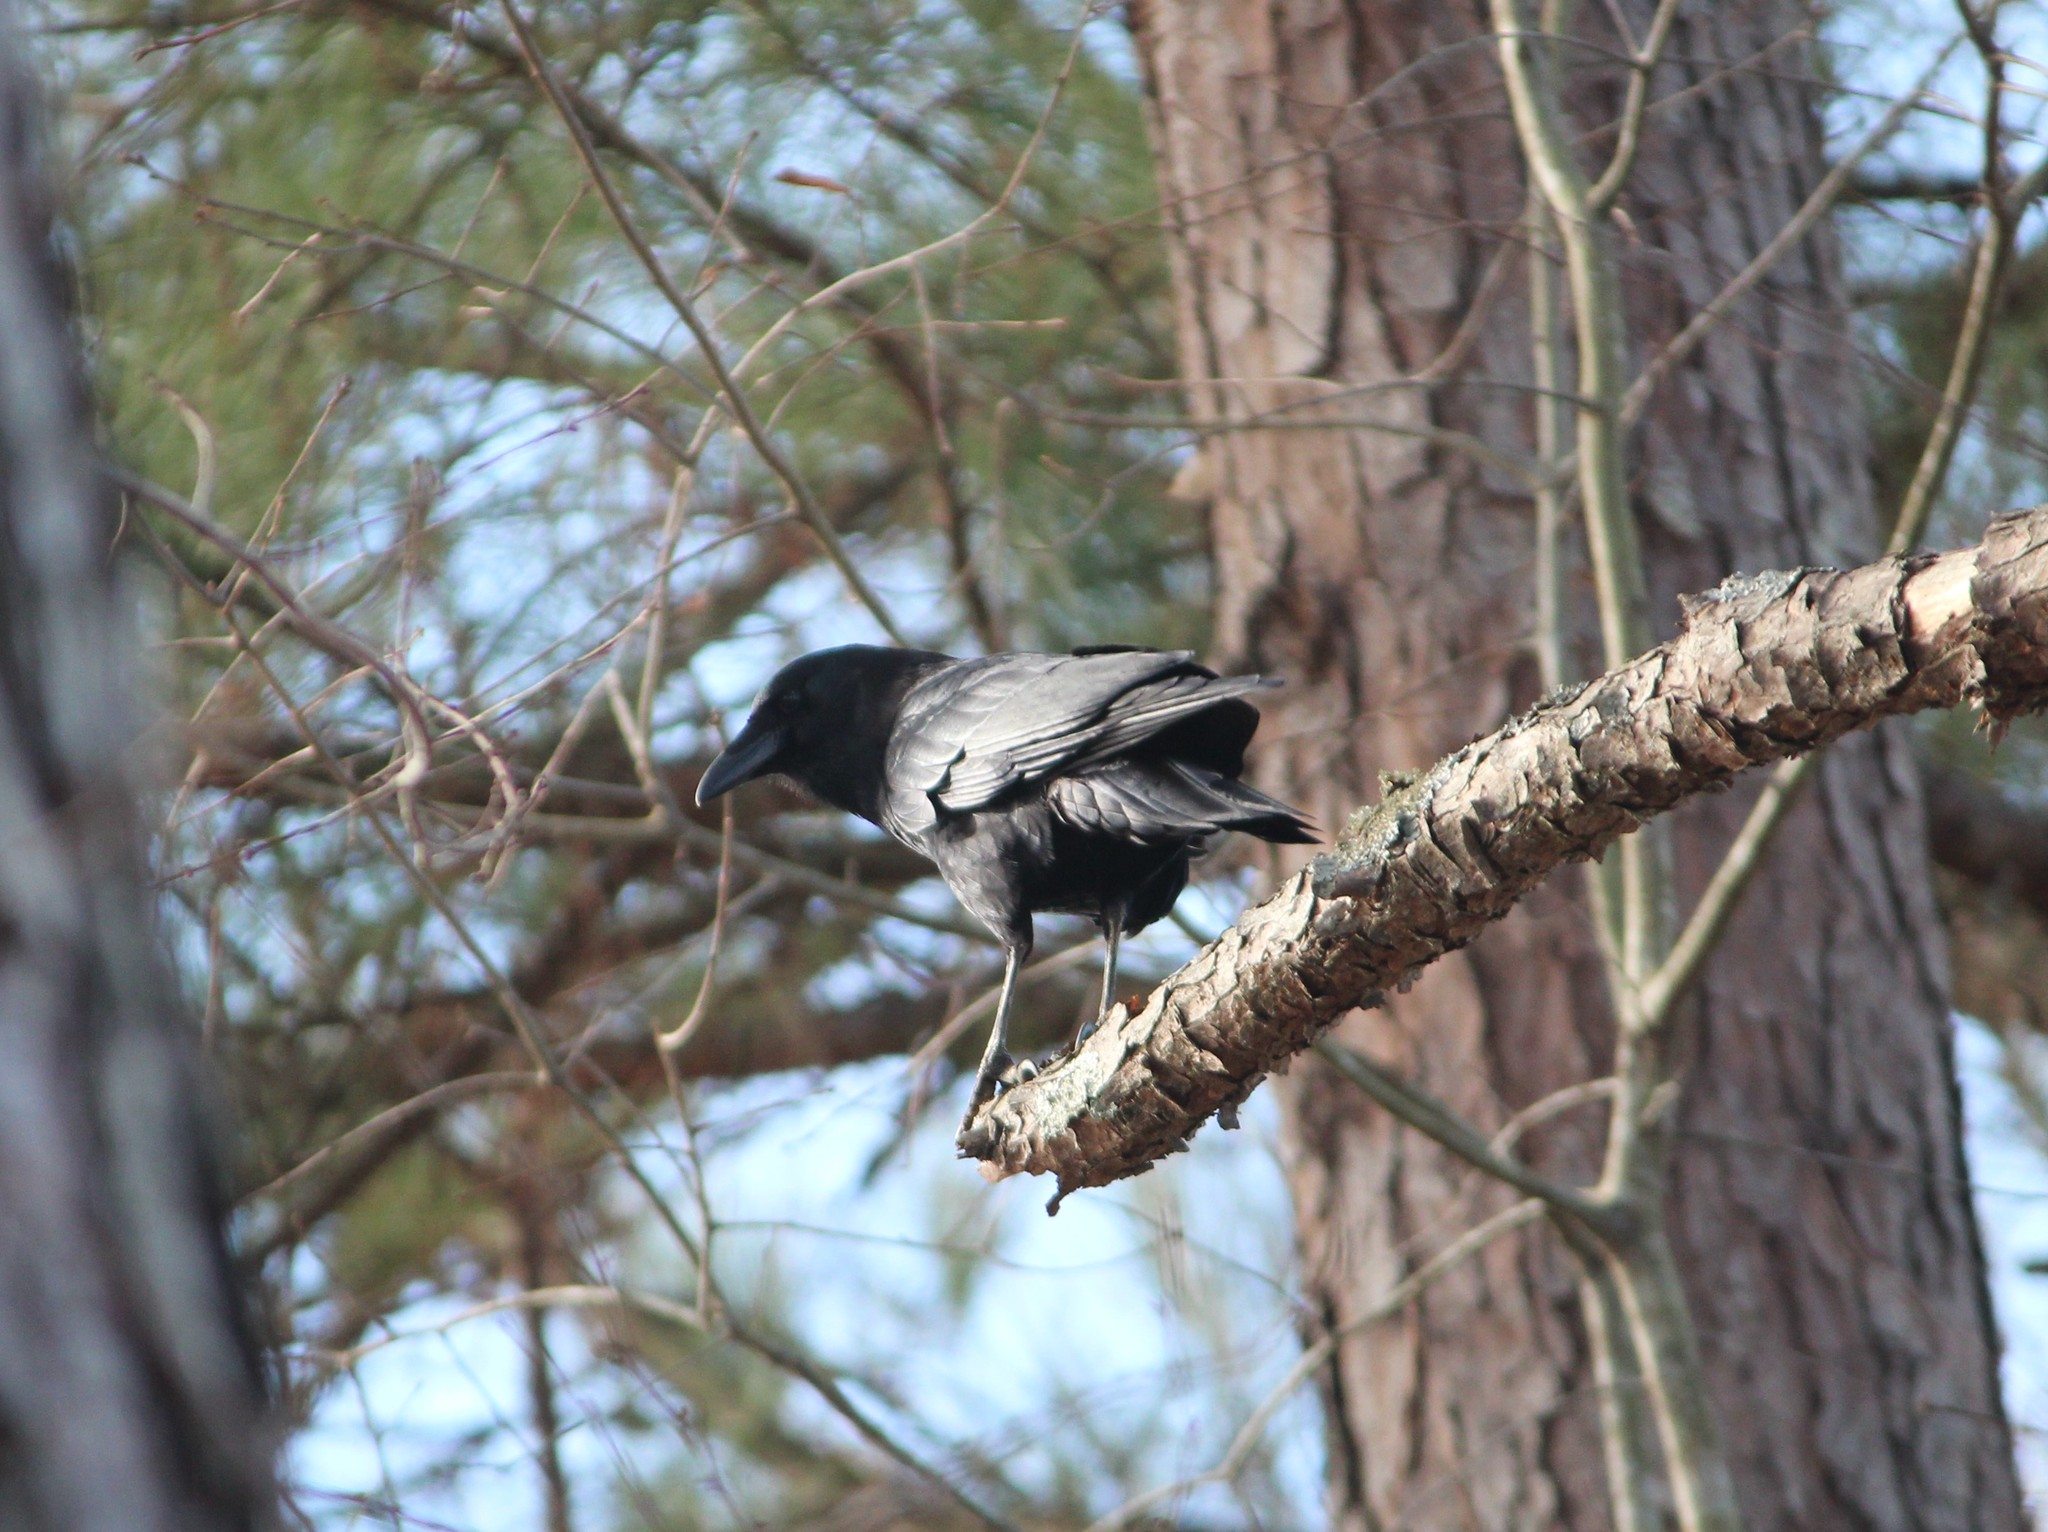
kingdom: Animalia
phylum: Chordata
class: Aves
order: Passeriformes
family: Corvidae
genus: Corvus
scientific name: Corvus brachyrhynchos
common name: American crow
